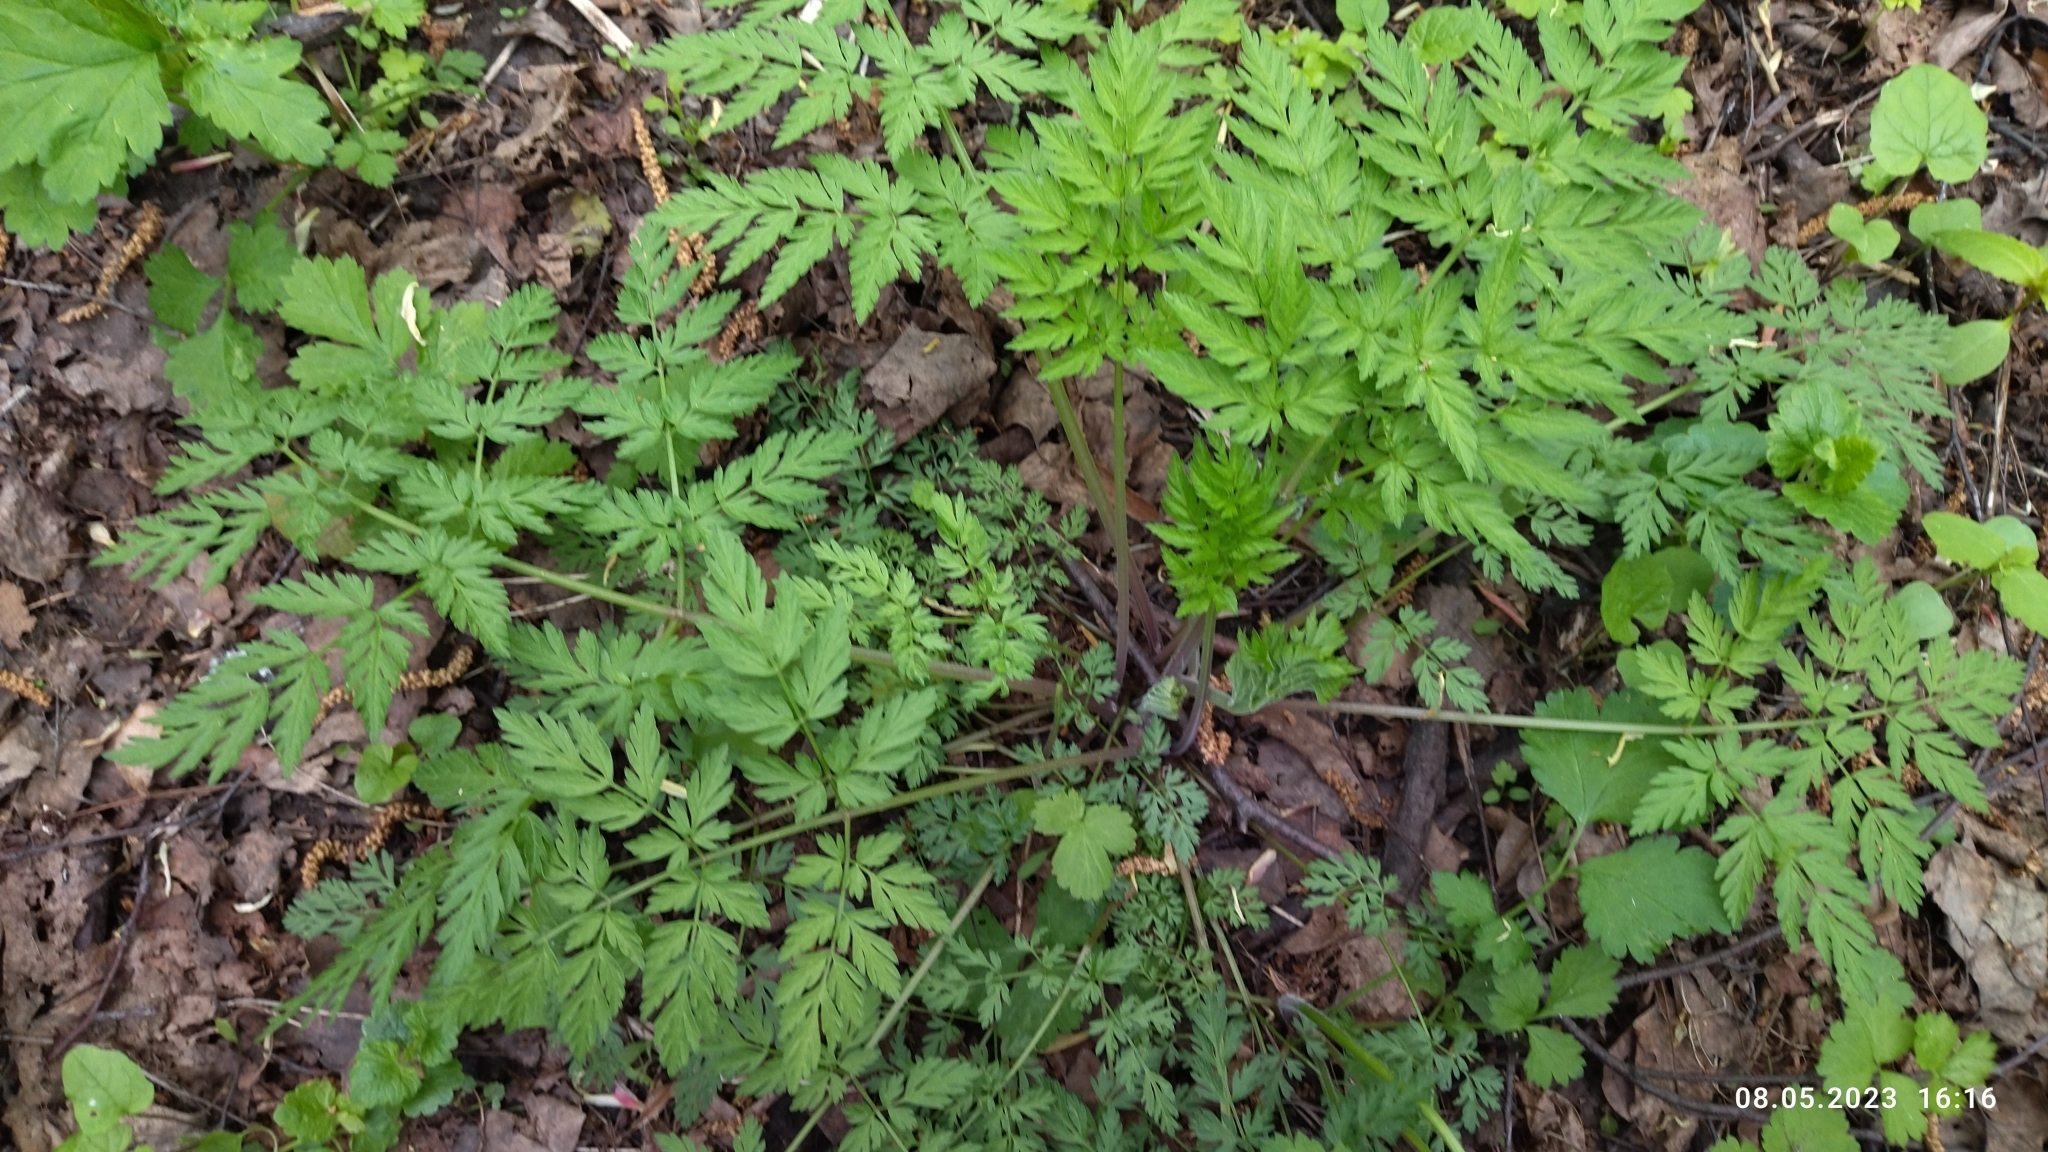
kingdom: Plantae
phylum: Tracheophyta
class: Magnoliopsida
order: Apiales
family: Apiaceae
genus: Anthriscus
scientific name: Anthriscus sylvestris
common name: Cow parsley
